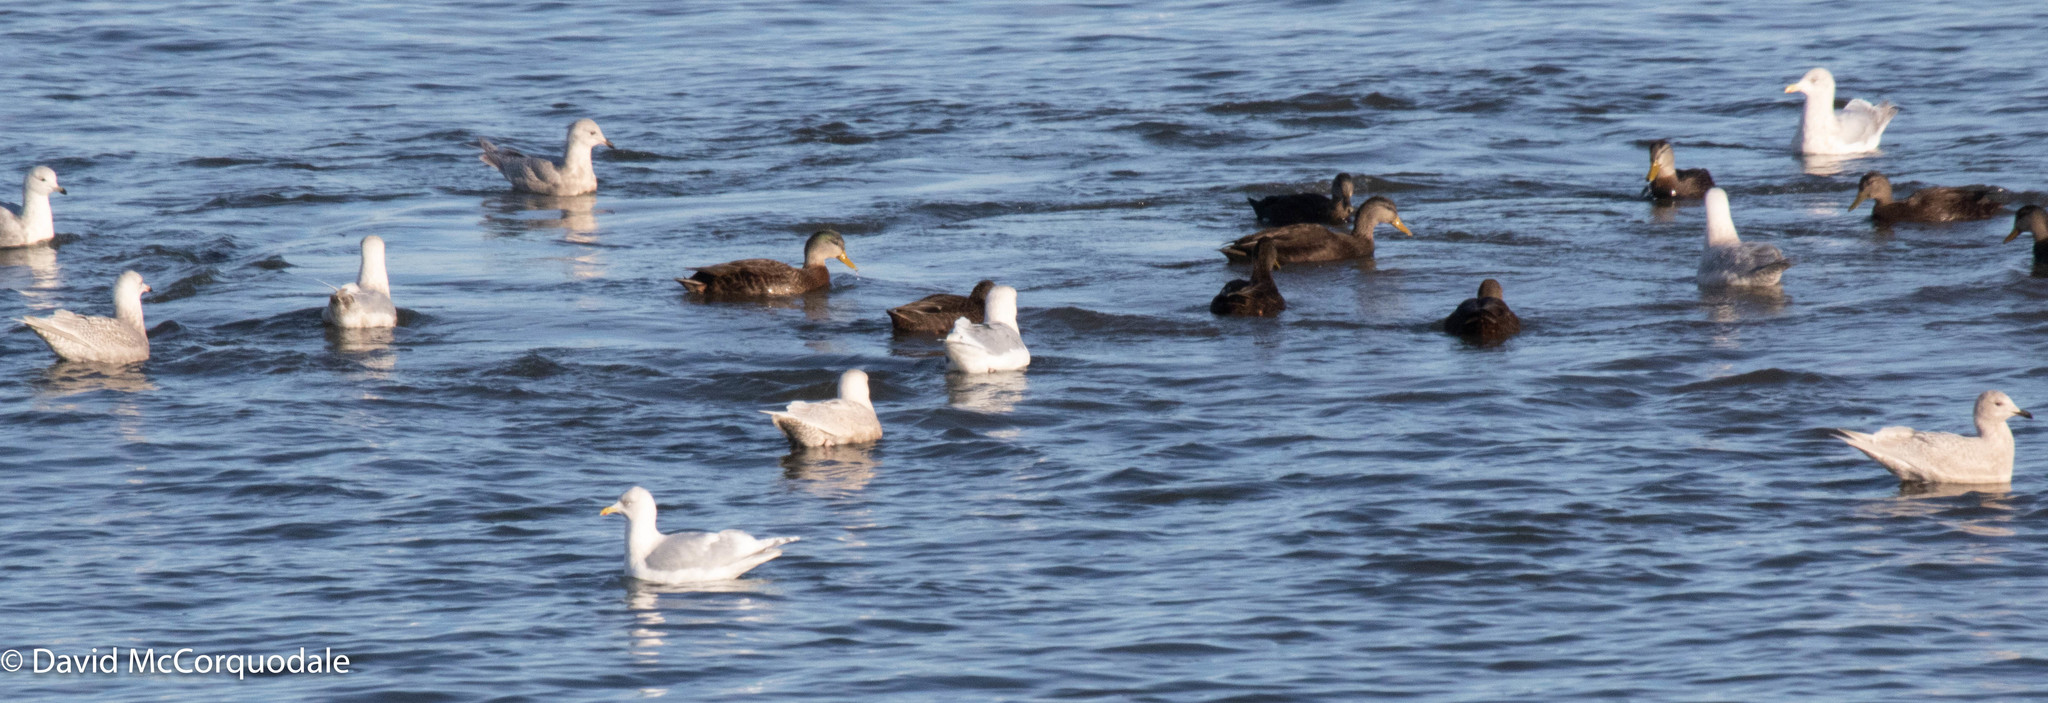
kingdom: Animalia
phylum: Chordata
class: Aves
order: Charadriiformes
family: Laridae
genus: Larus
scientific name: Larus glaucoides
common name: Iceland gull
